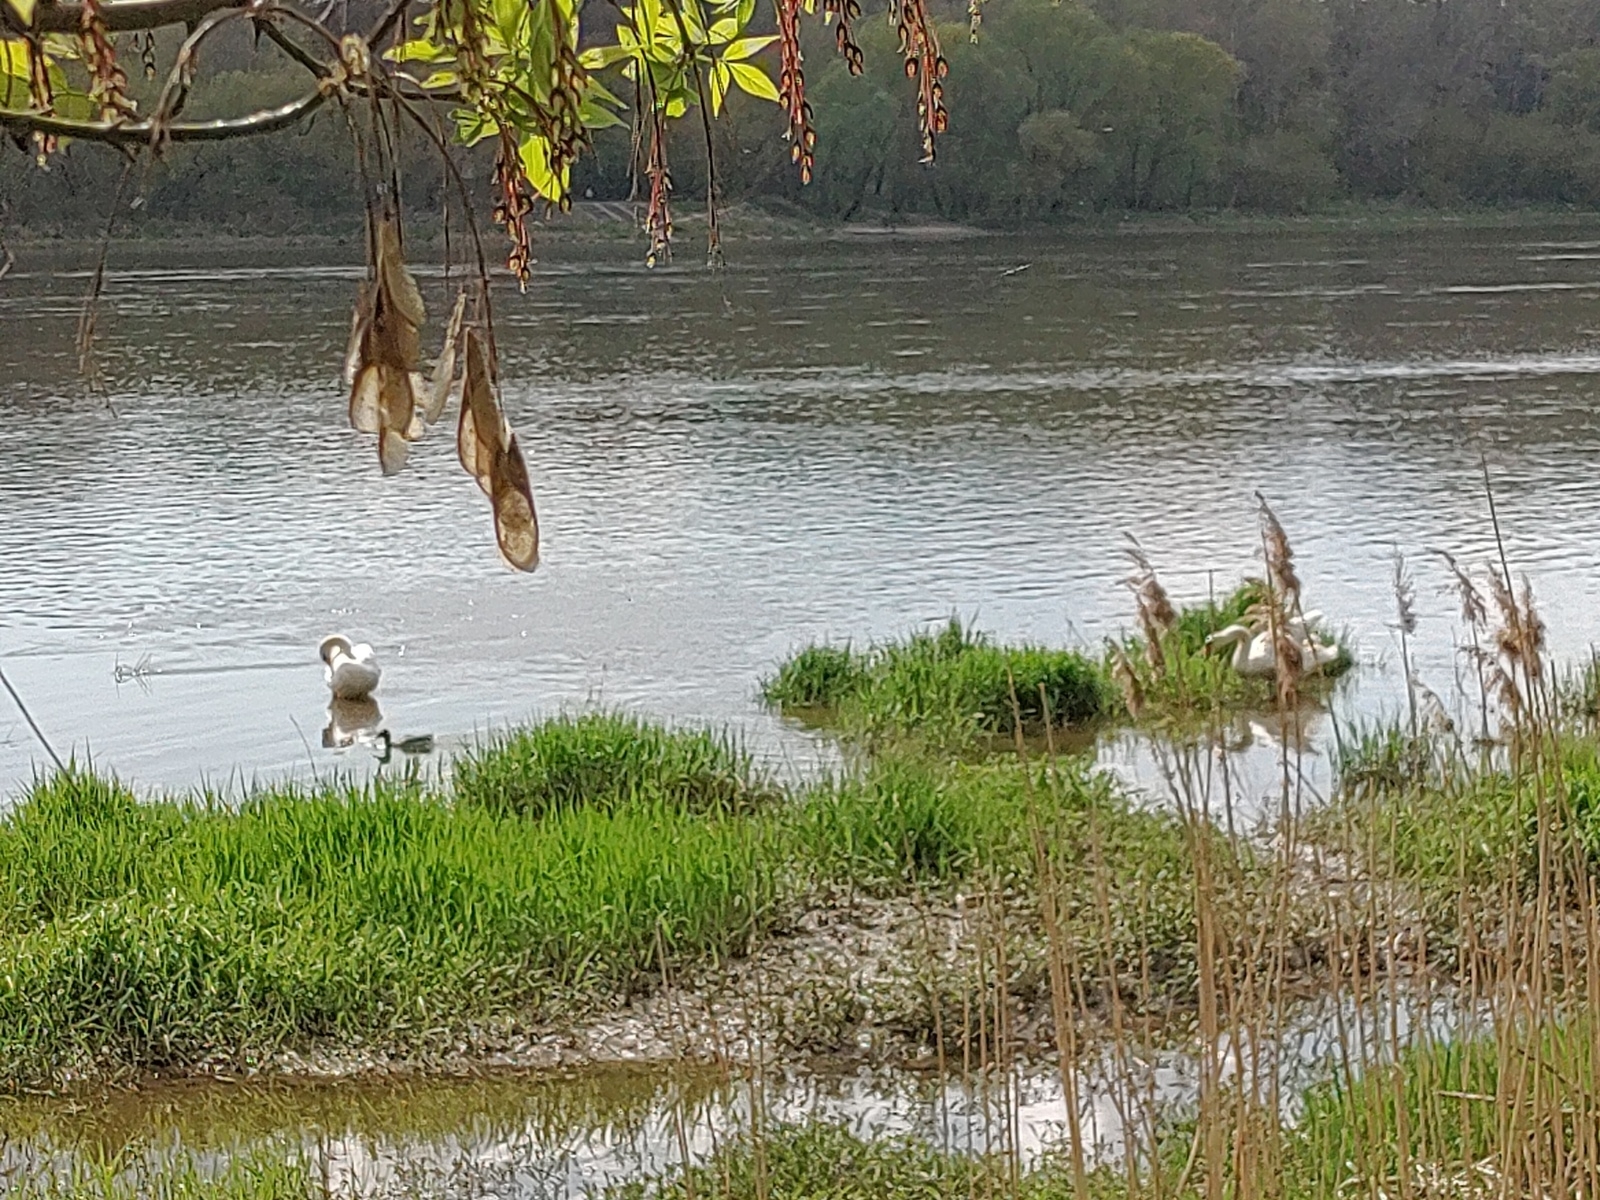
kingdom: Animalia
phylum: Chordata
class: Aves
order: Anseriformes
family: Anatidae
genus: Cygnus
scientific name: Cygnus olor
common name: Mute swan
